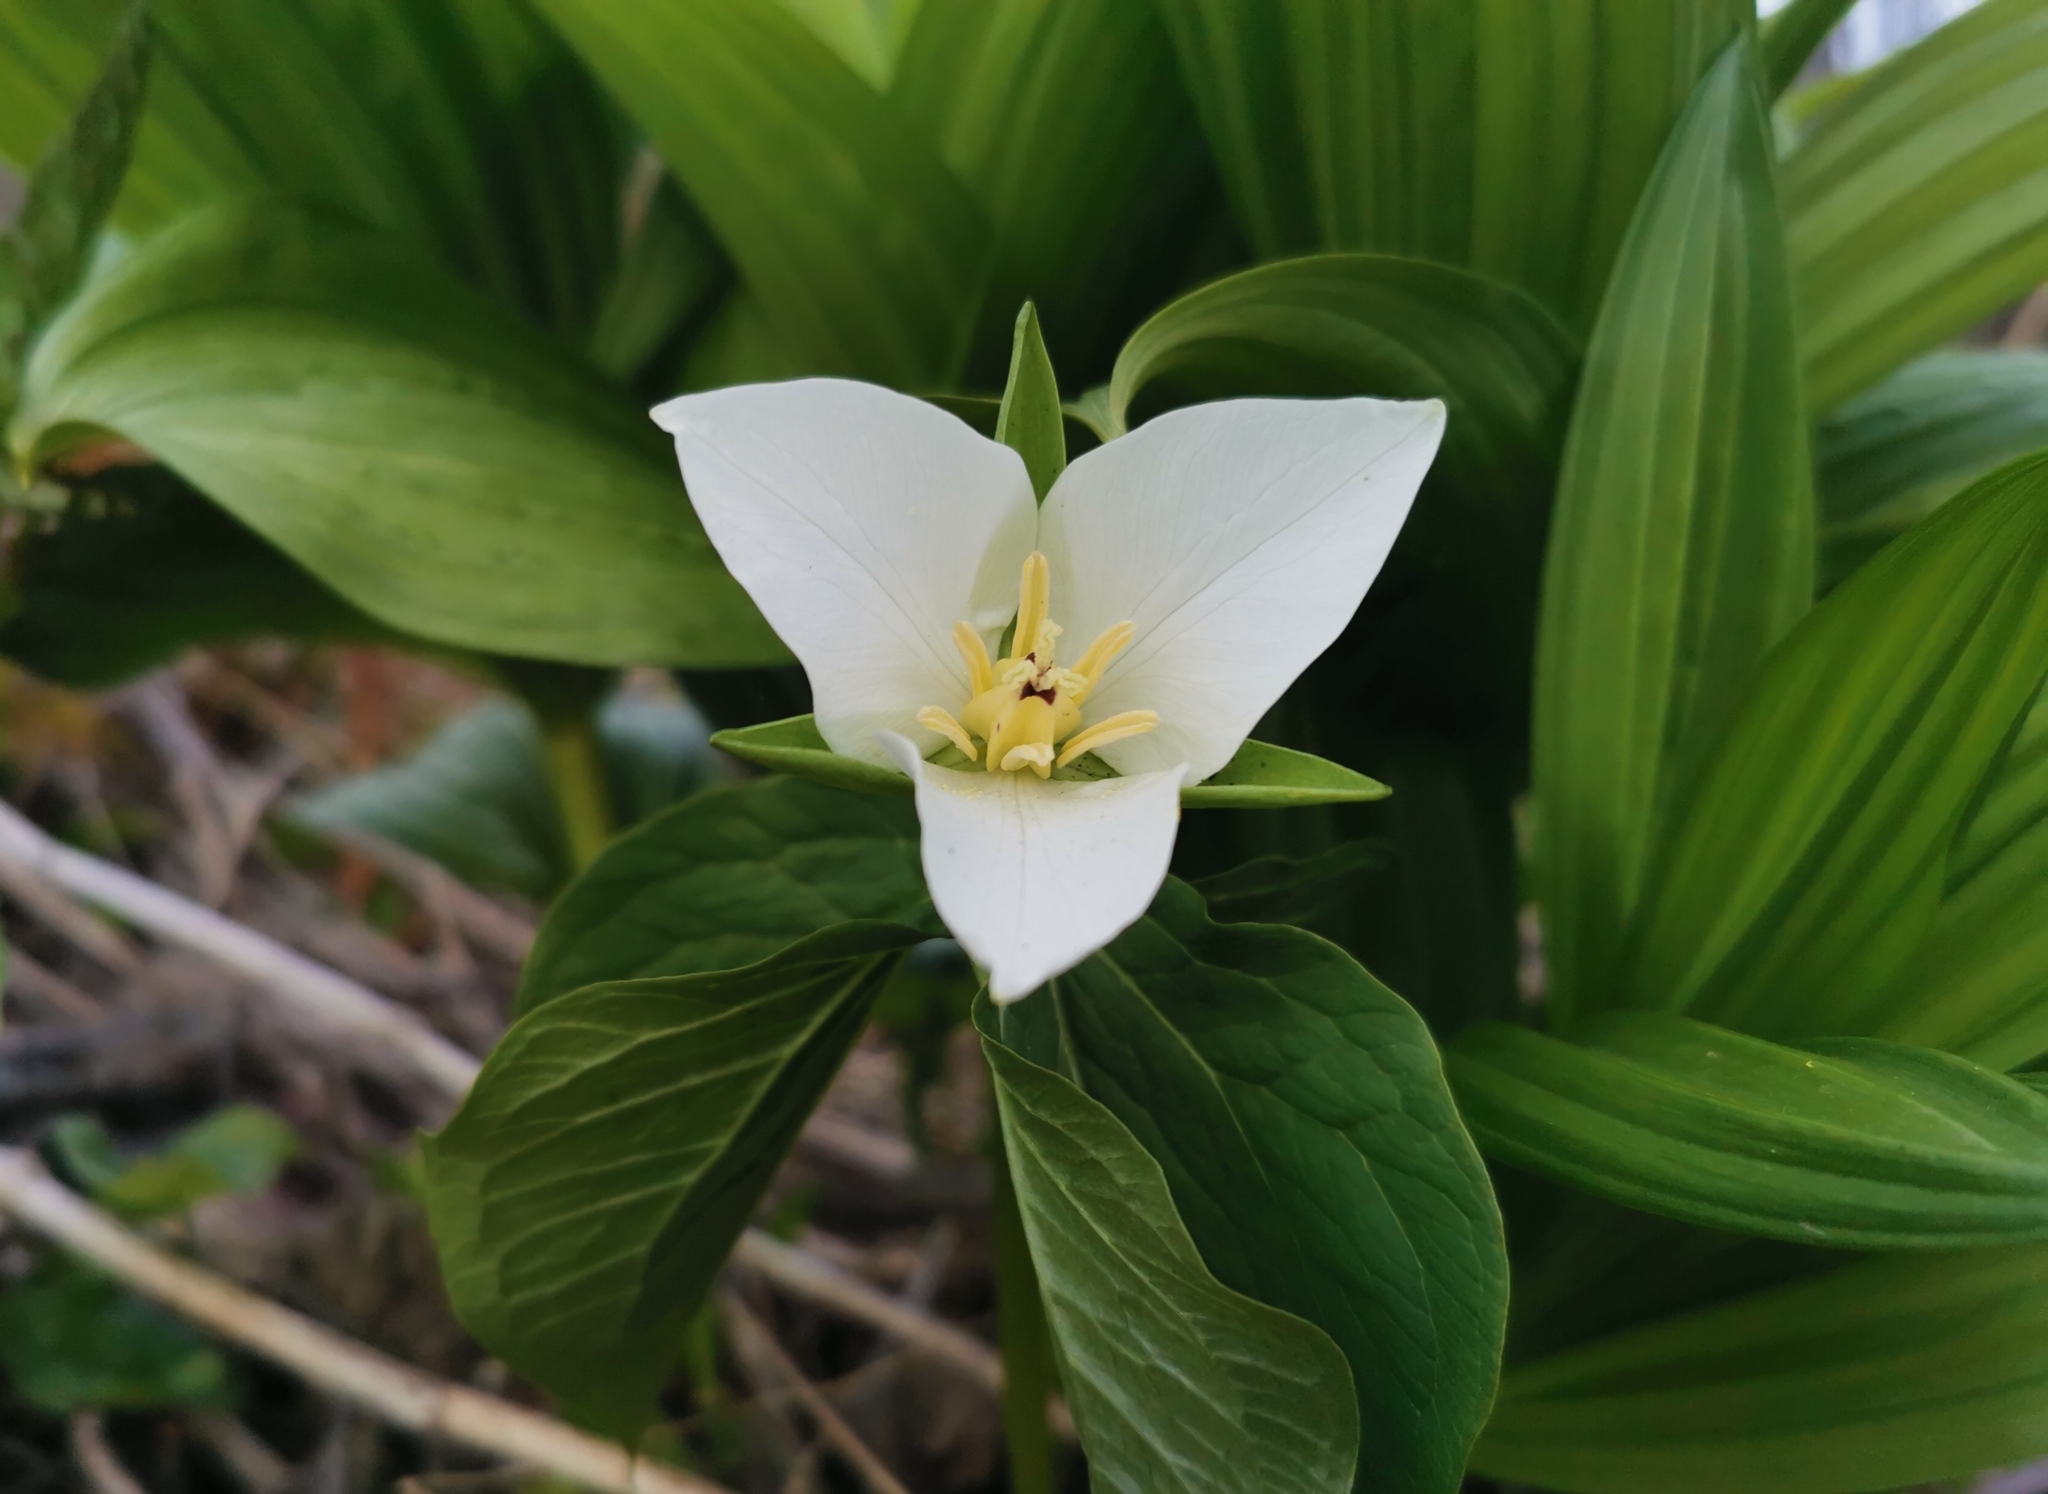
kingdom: Plantae
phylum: Tracheophyta
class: Liliopsida
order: Liliales
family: Melanthiaceae
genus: Trillium
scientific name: Trillium camschatcense
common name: Kamchatka trillium
